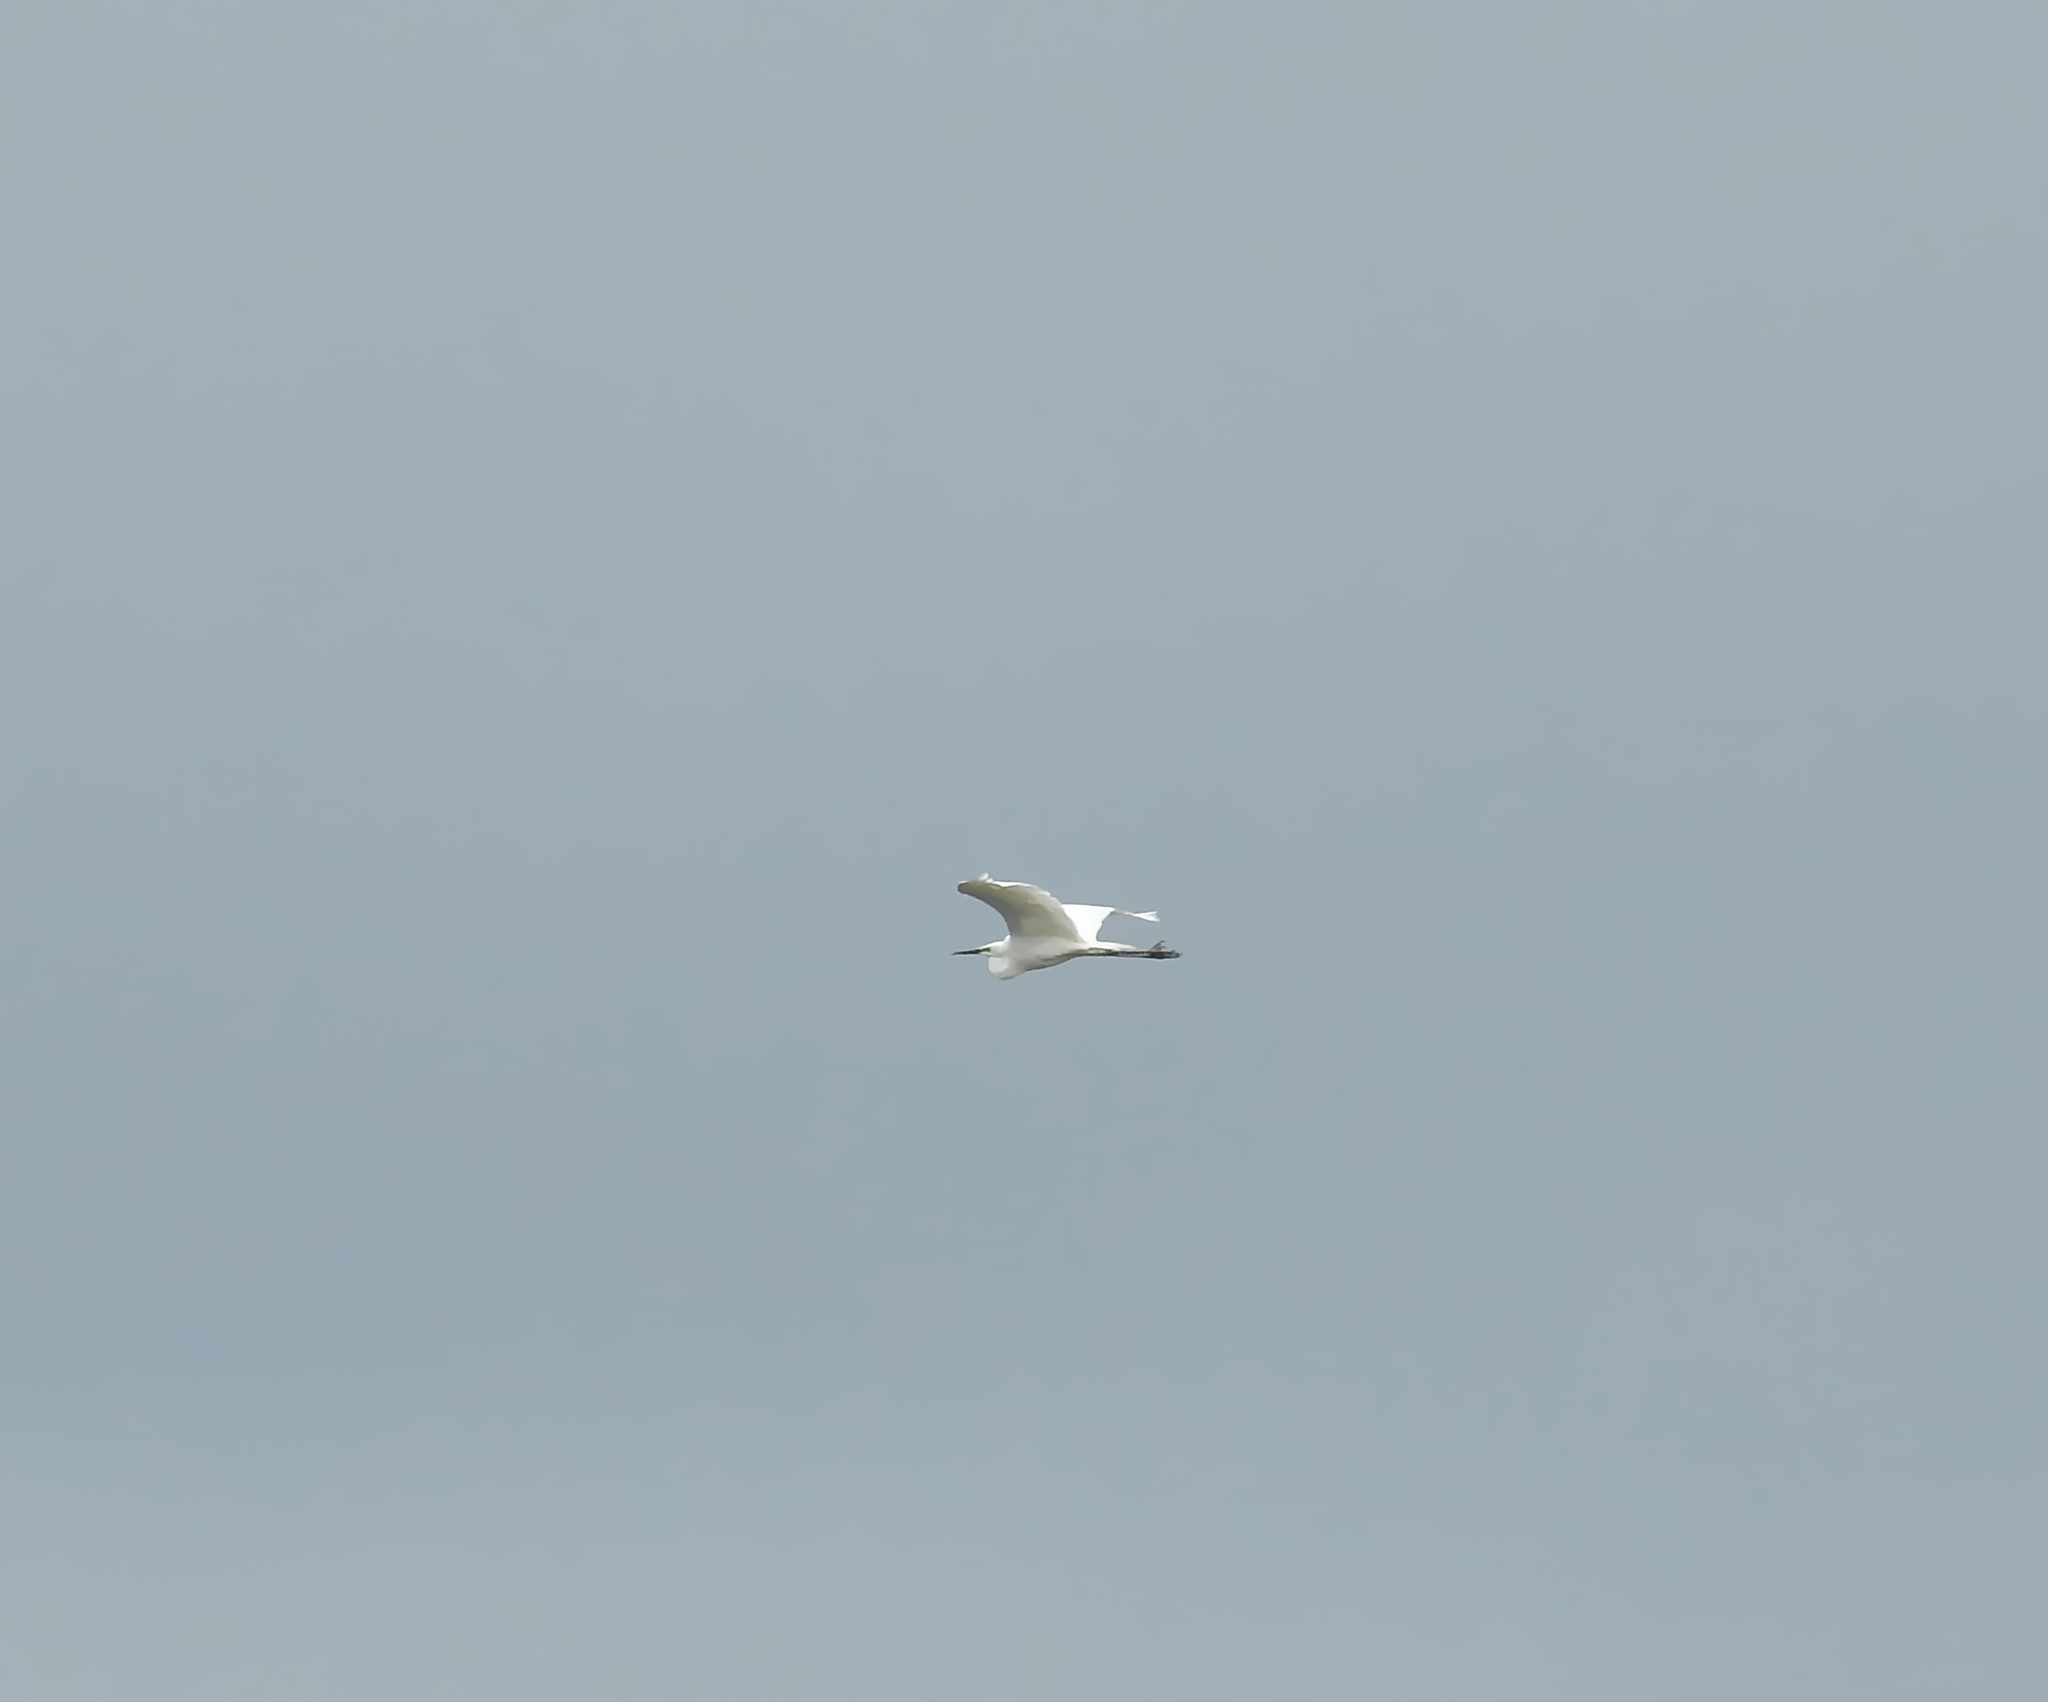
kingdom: Animalia
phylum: Chordata
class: Aves
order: Pelecaniformes
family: Ardeidae
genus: Ardea
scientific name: Ardea alba
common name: Great egret
